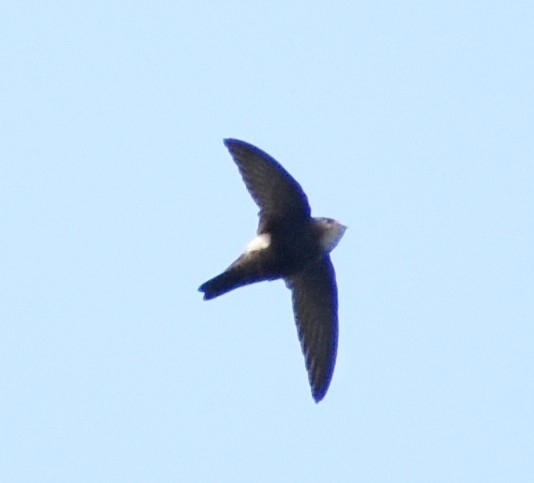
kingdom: Animalia
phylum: Chordata
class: Aves
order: Apodiformes
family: Apodidae
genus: Apus
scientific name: Apus nipalensis
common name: House swift
